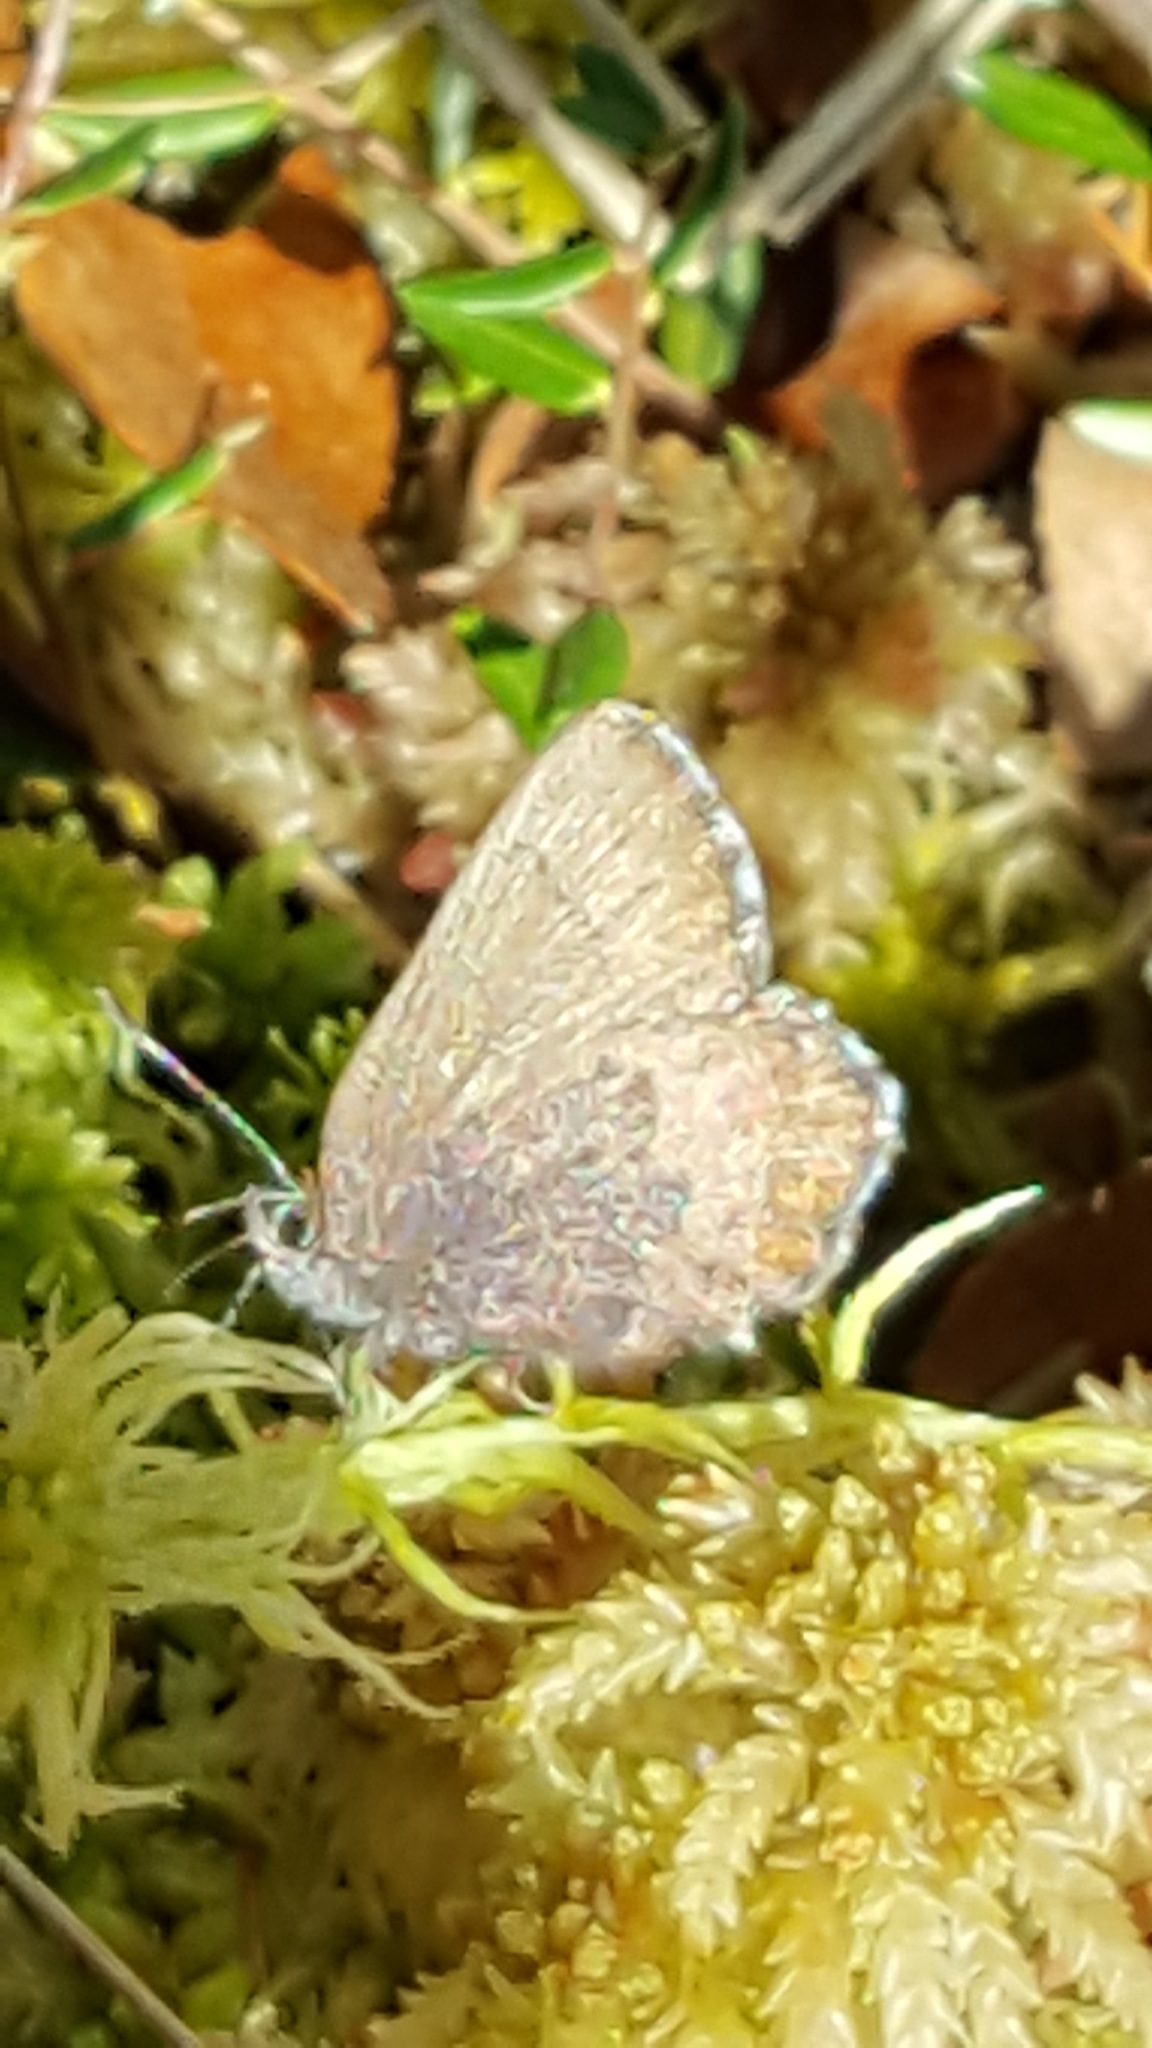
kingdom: Animalia
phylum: Arthropoda
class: Insecta
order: Lepidoptera
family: Lycaenidae
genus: Incisalia
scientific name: Incisalia irioides
